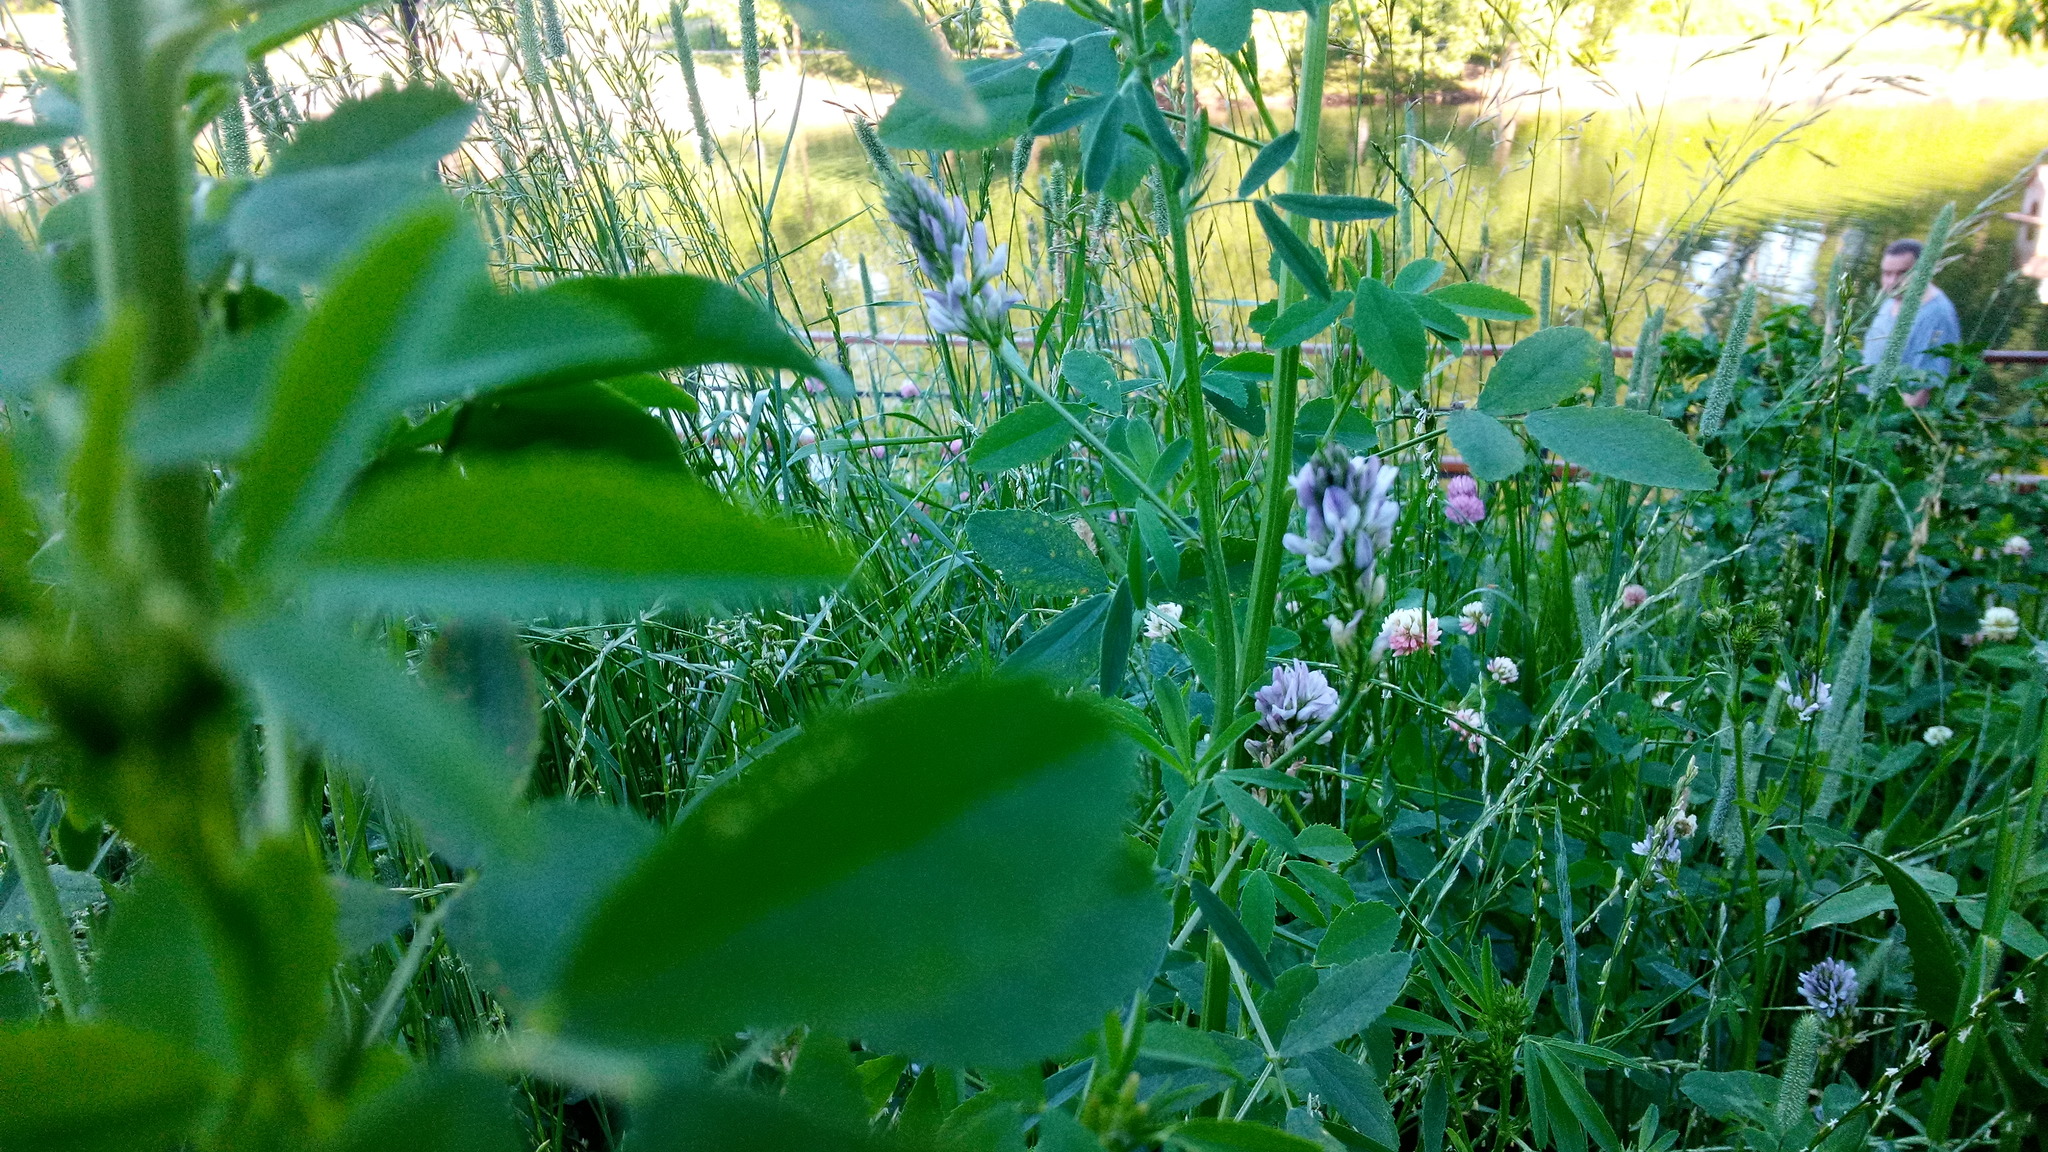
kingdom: Plantae
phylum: Tracheophyta
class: Magnoliopsida
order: Fabales
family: Fabaceae
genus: Medicago
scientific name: Medicago varia
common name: Sand lucerne
